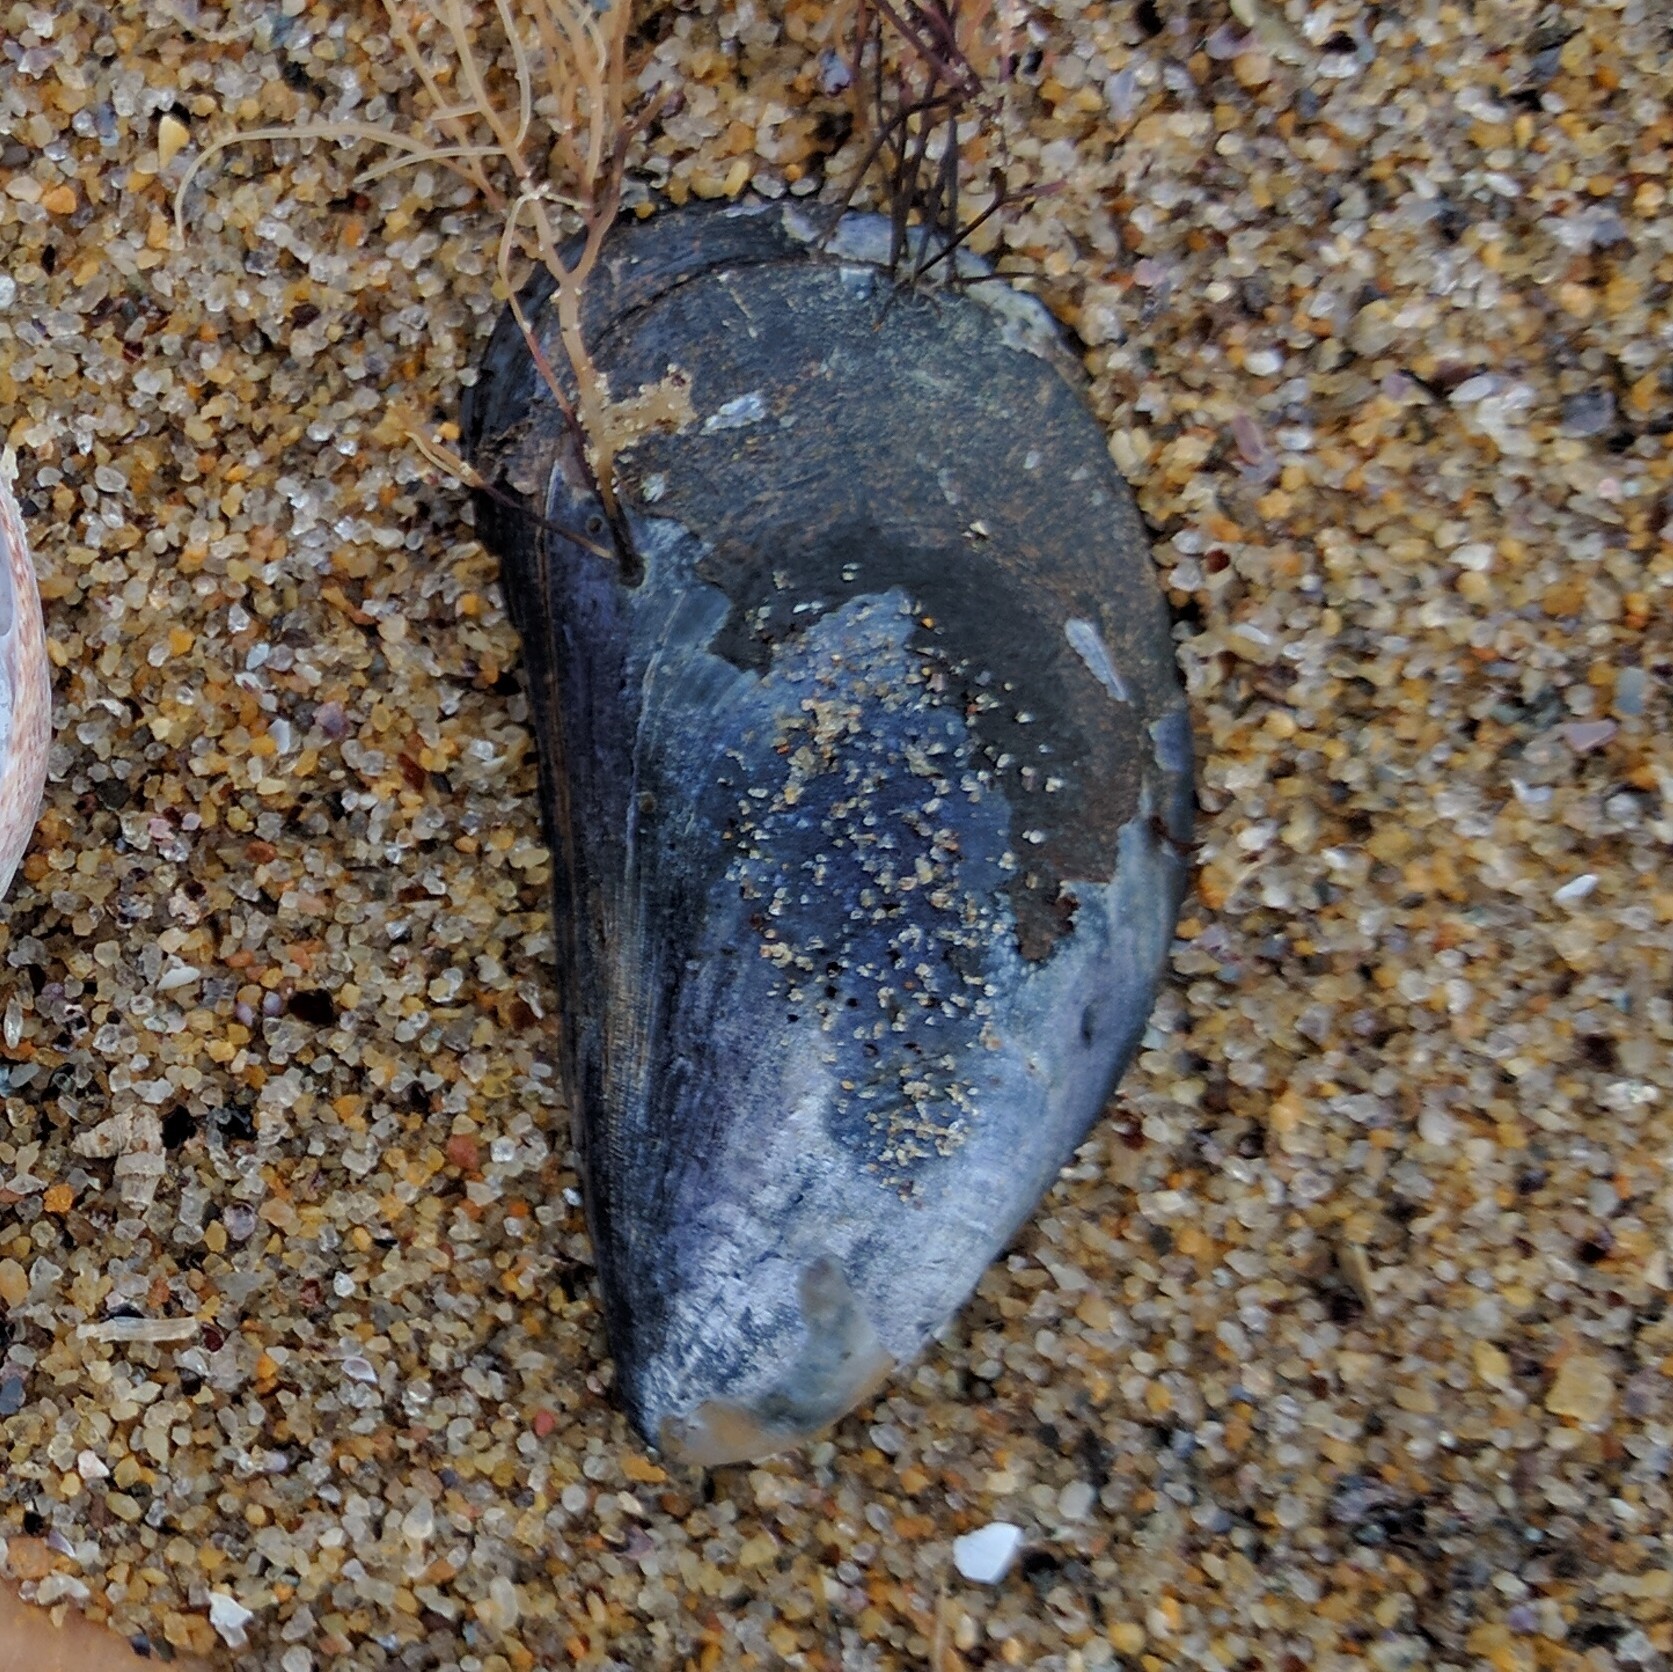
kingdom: Animalia
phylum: Mollusca
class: Bivalvia
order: Mytilida
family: Mytilidae
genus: Mytilus
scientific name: Mytilus edulis
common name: Blue mussel
